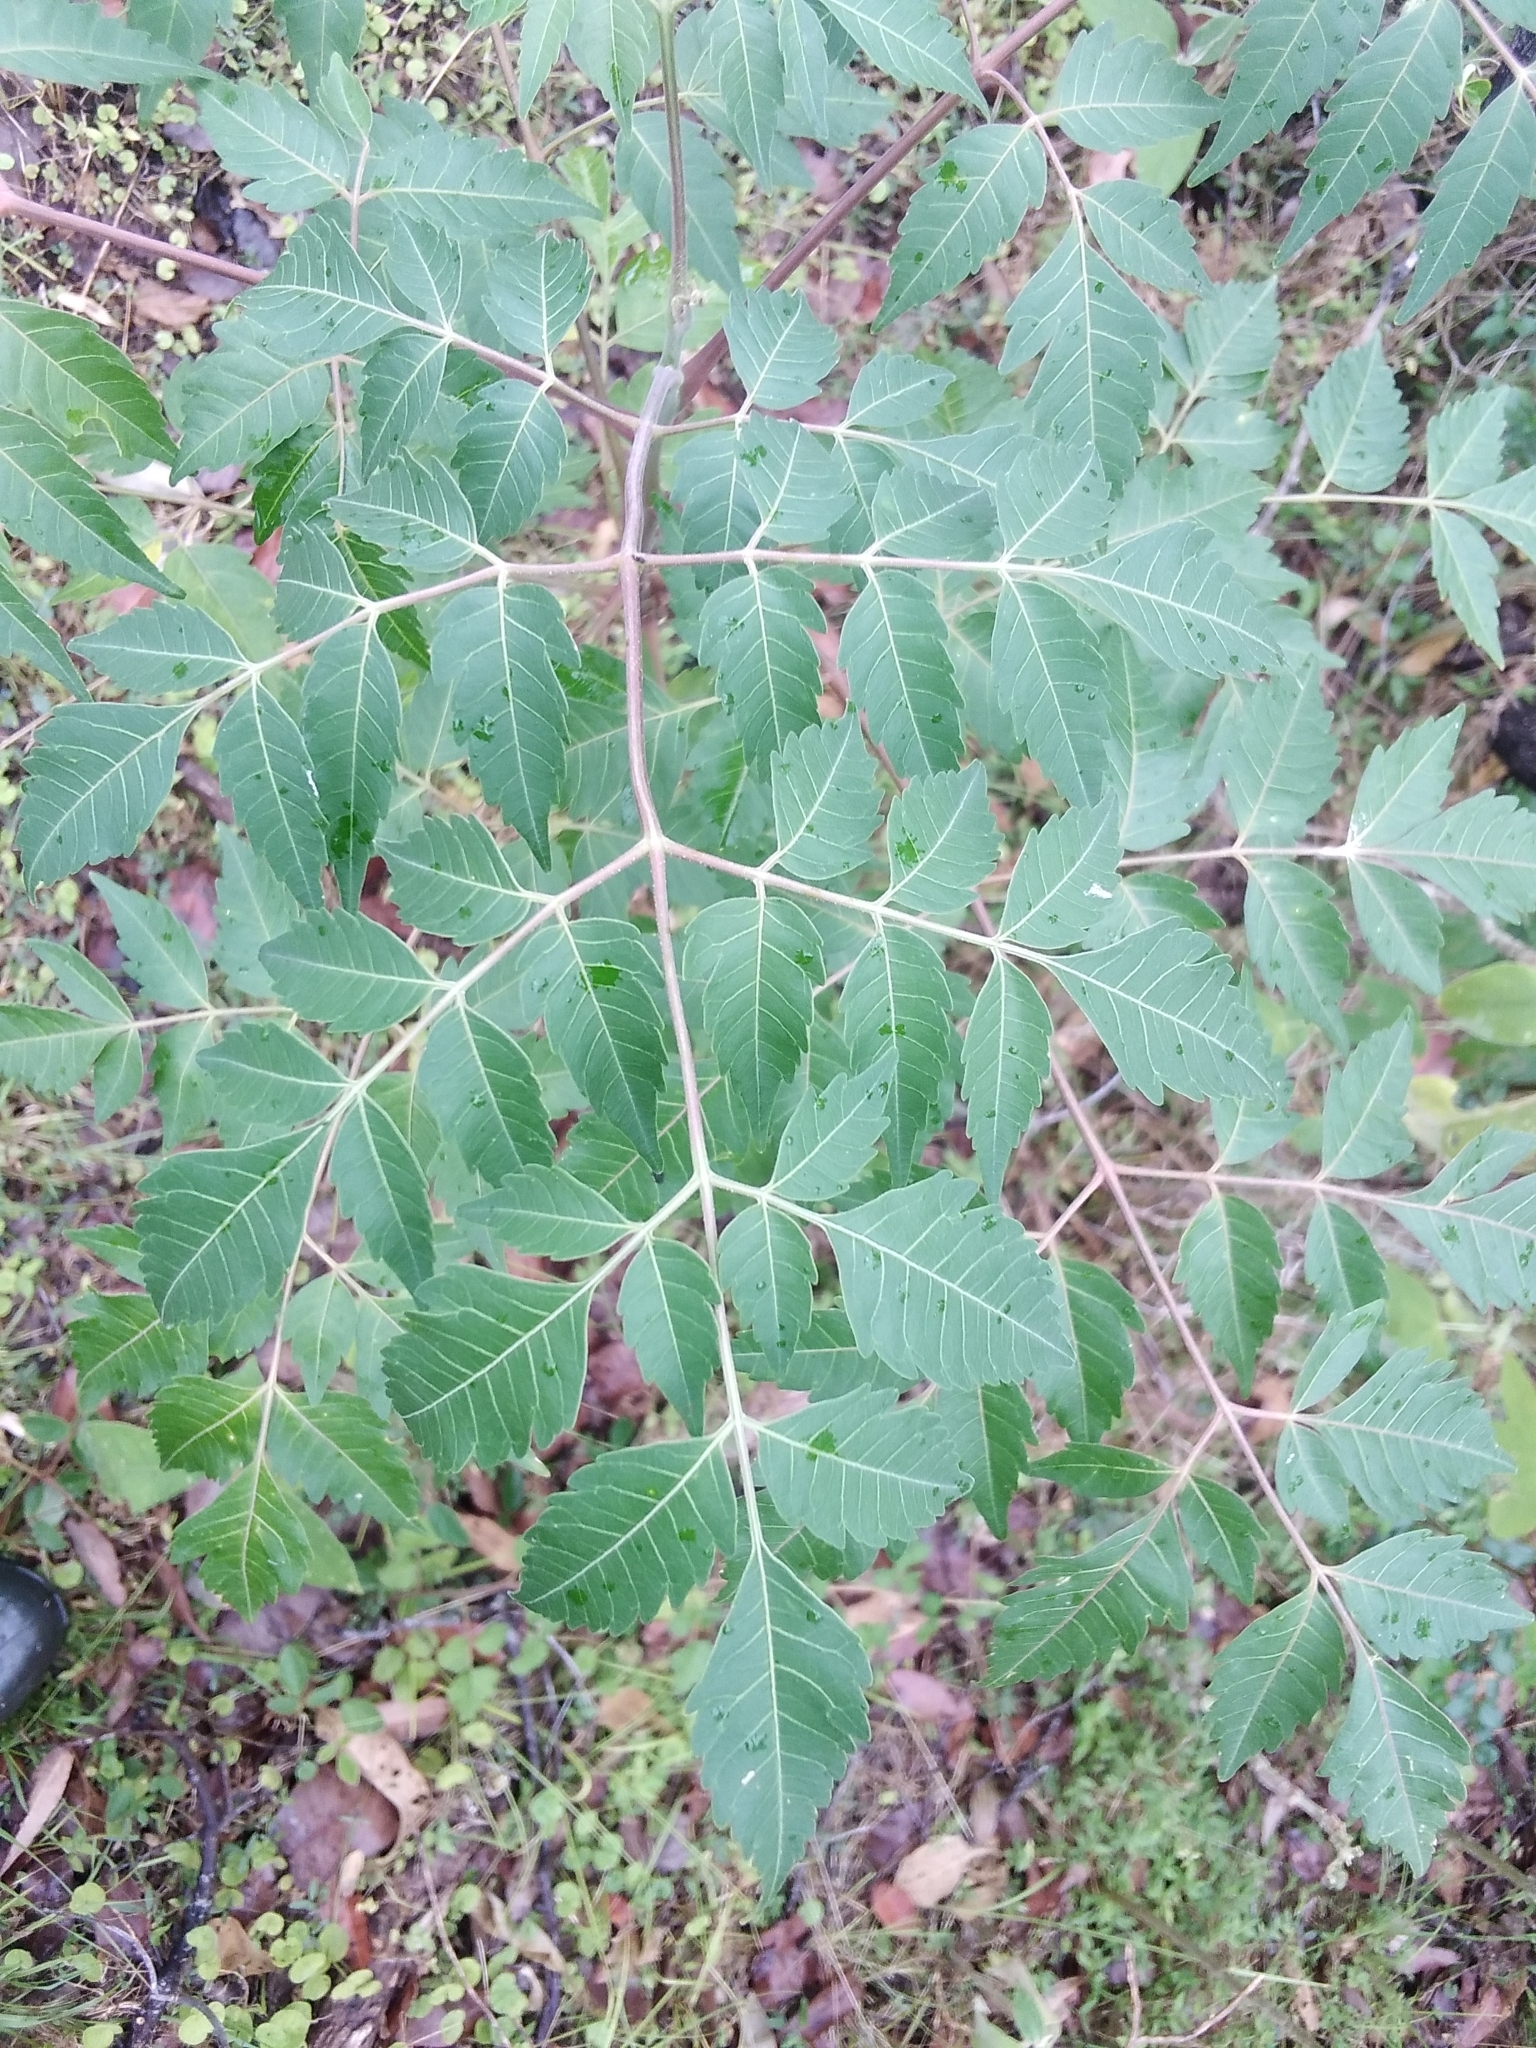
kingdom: Plantae
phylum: Tracheophyta
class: Magnoliopsida
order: Sapindales
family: Meliaceae
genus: Melia
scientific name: Melia azedarach
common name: Chinaberrytree
